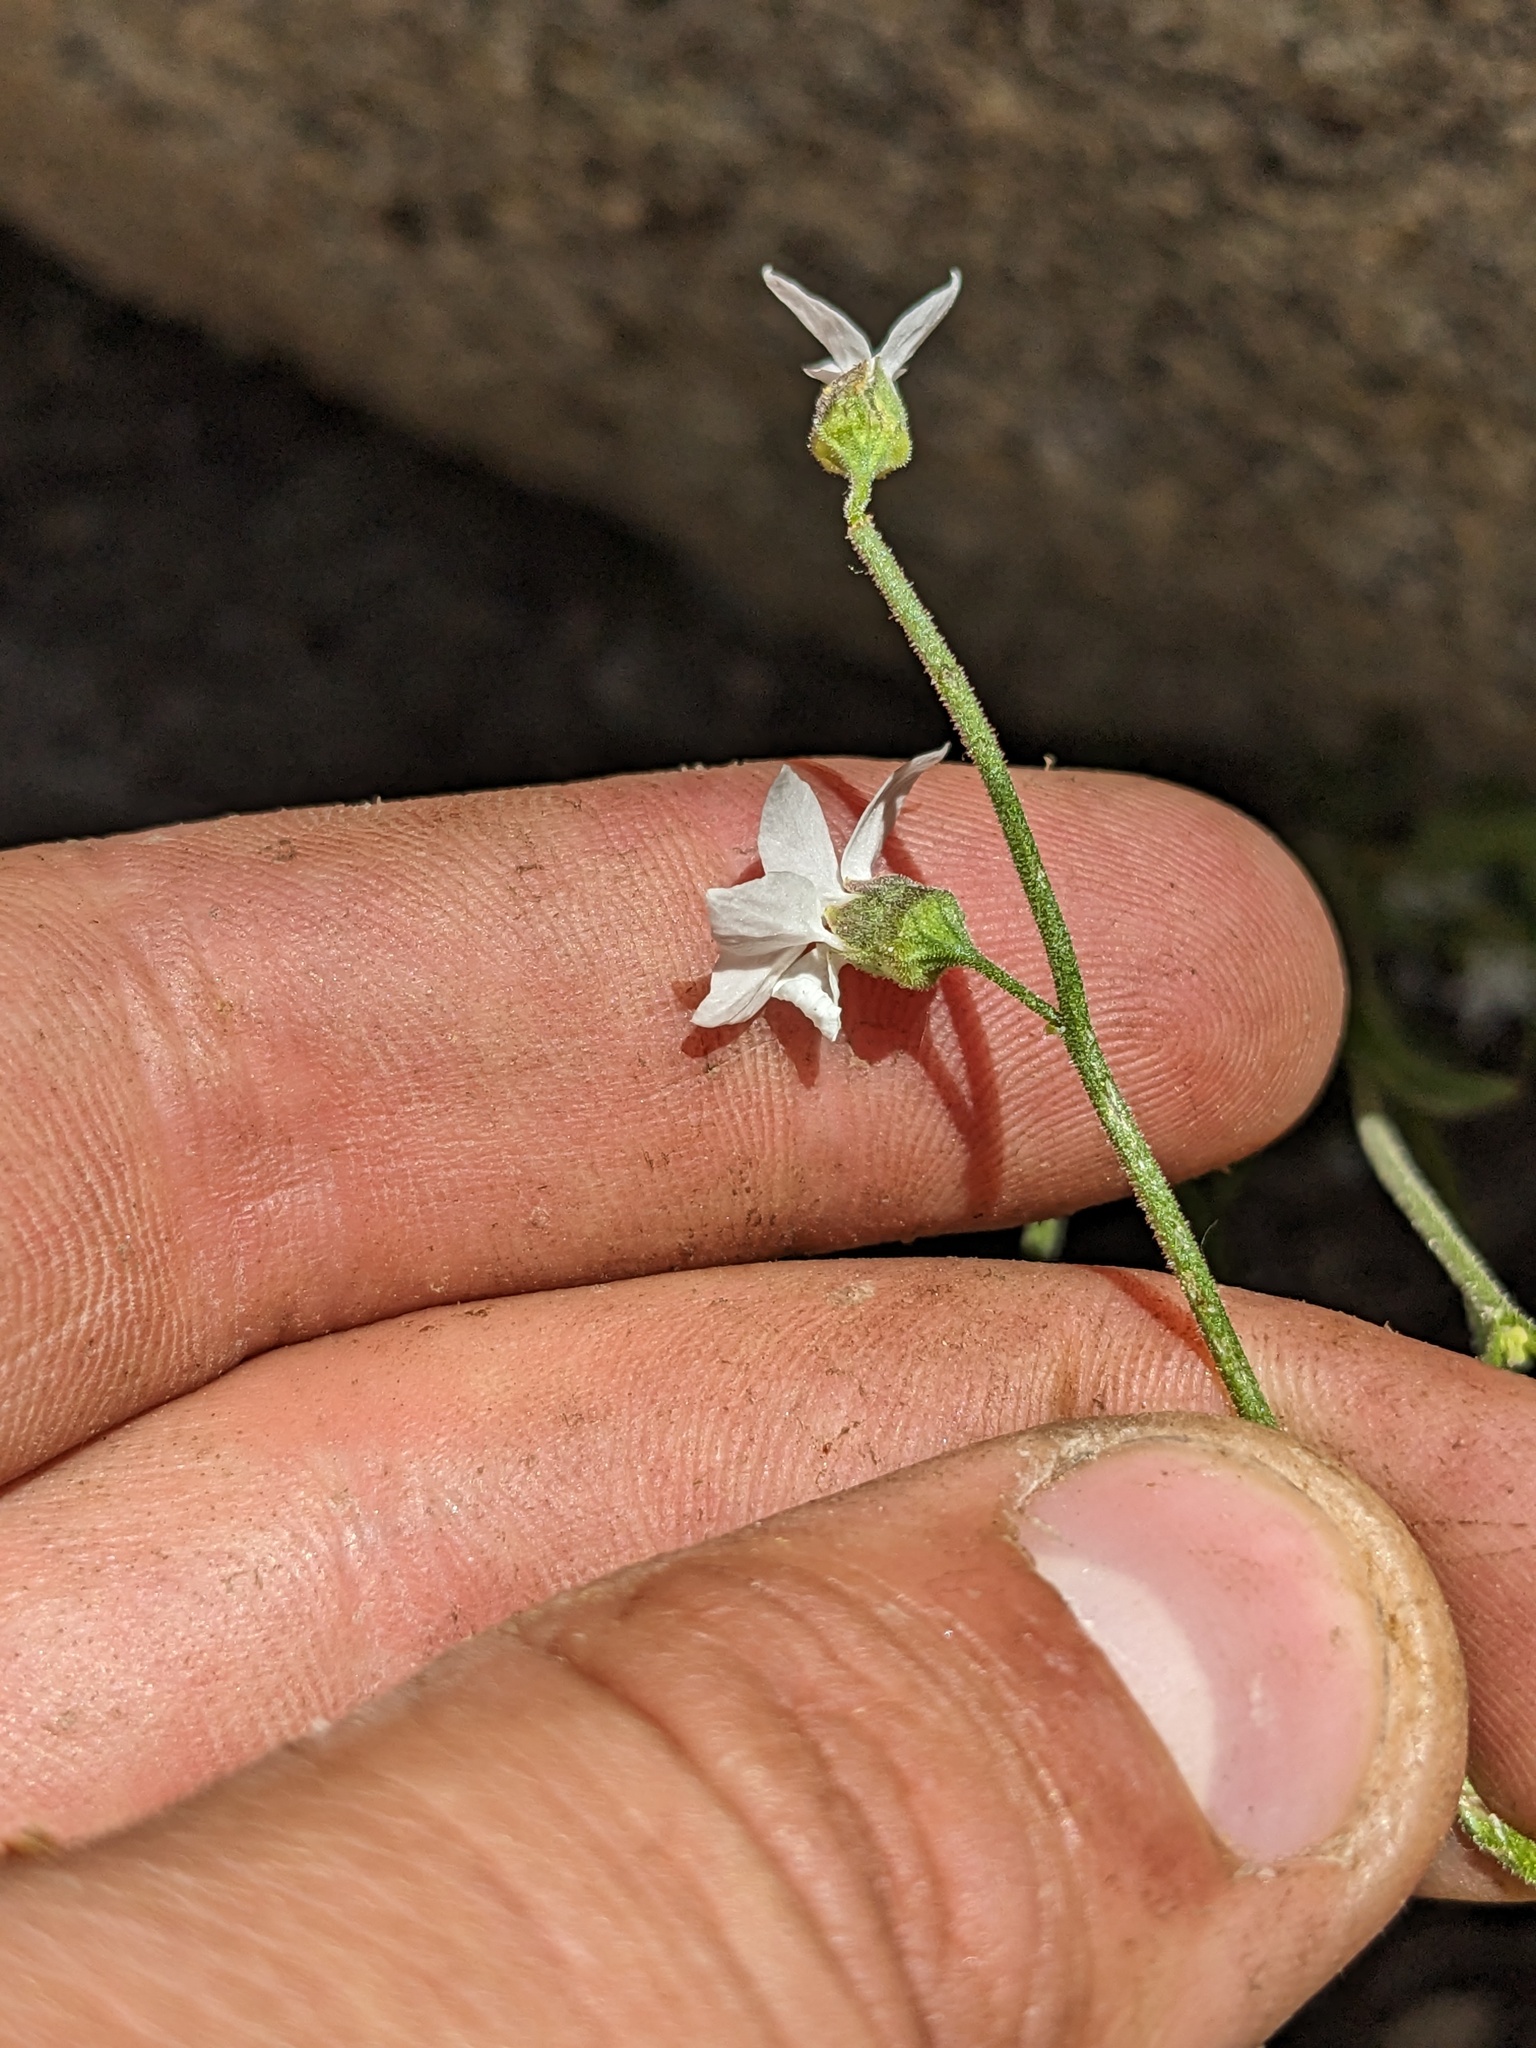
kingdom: Plantae
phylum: Tracheophyta
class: Magnoliopsida
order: Saxifragales
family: Saxifragaceae
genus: Lithophragma
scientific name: Lithophragma bolanderi
